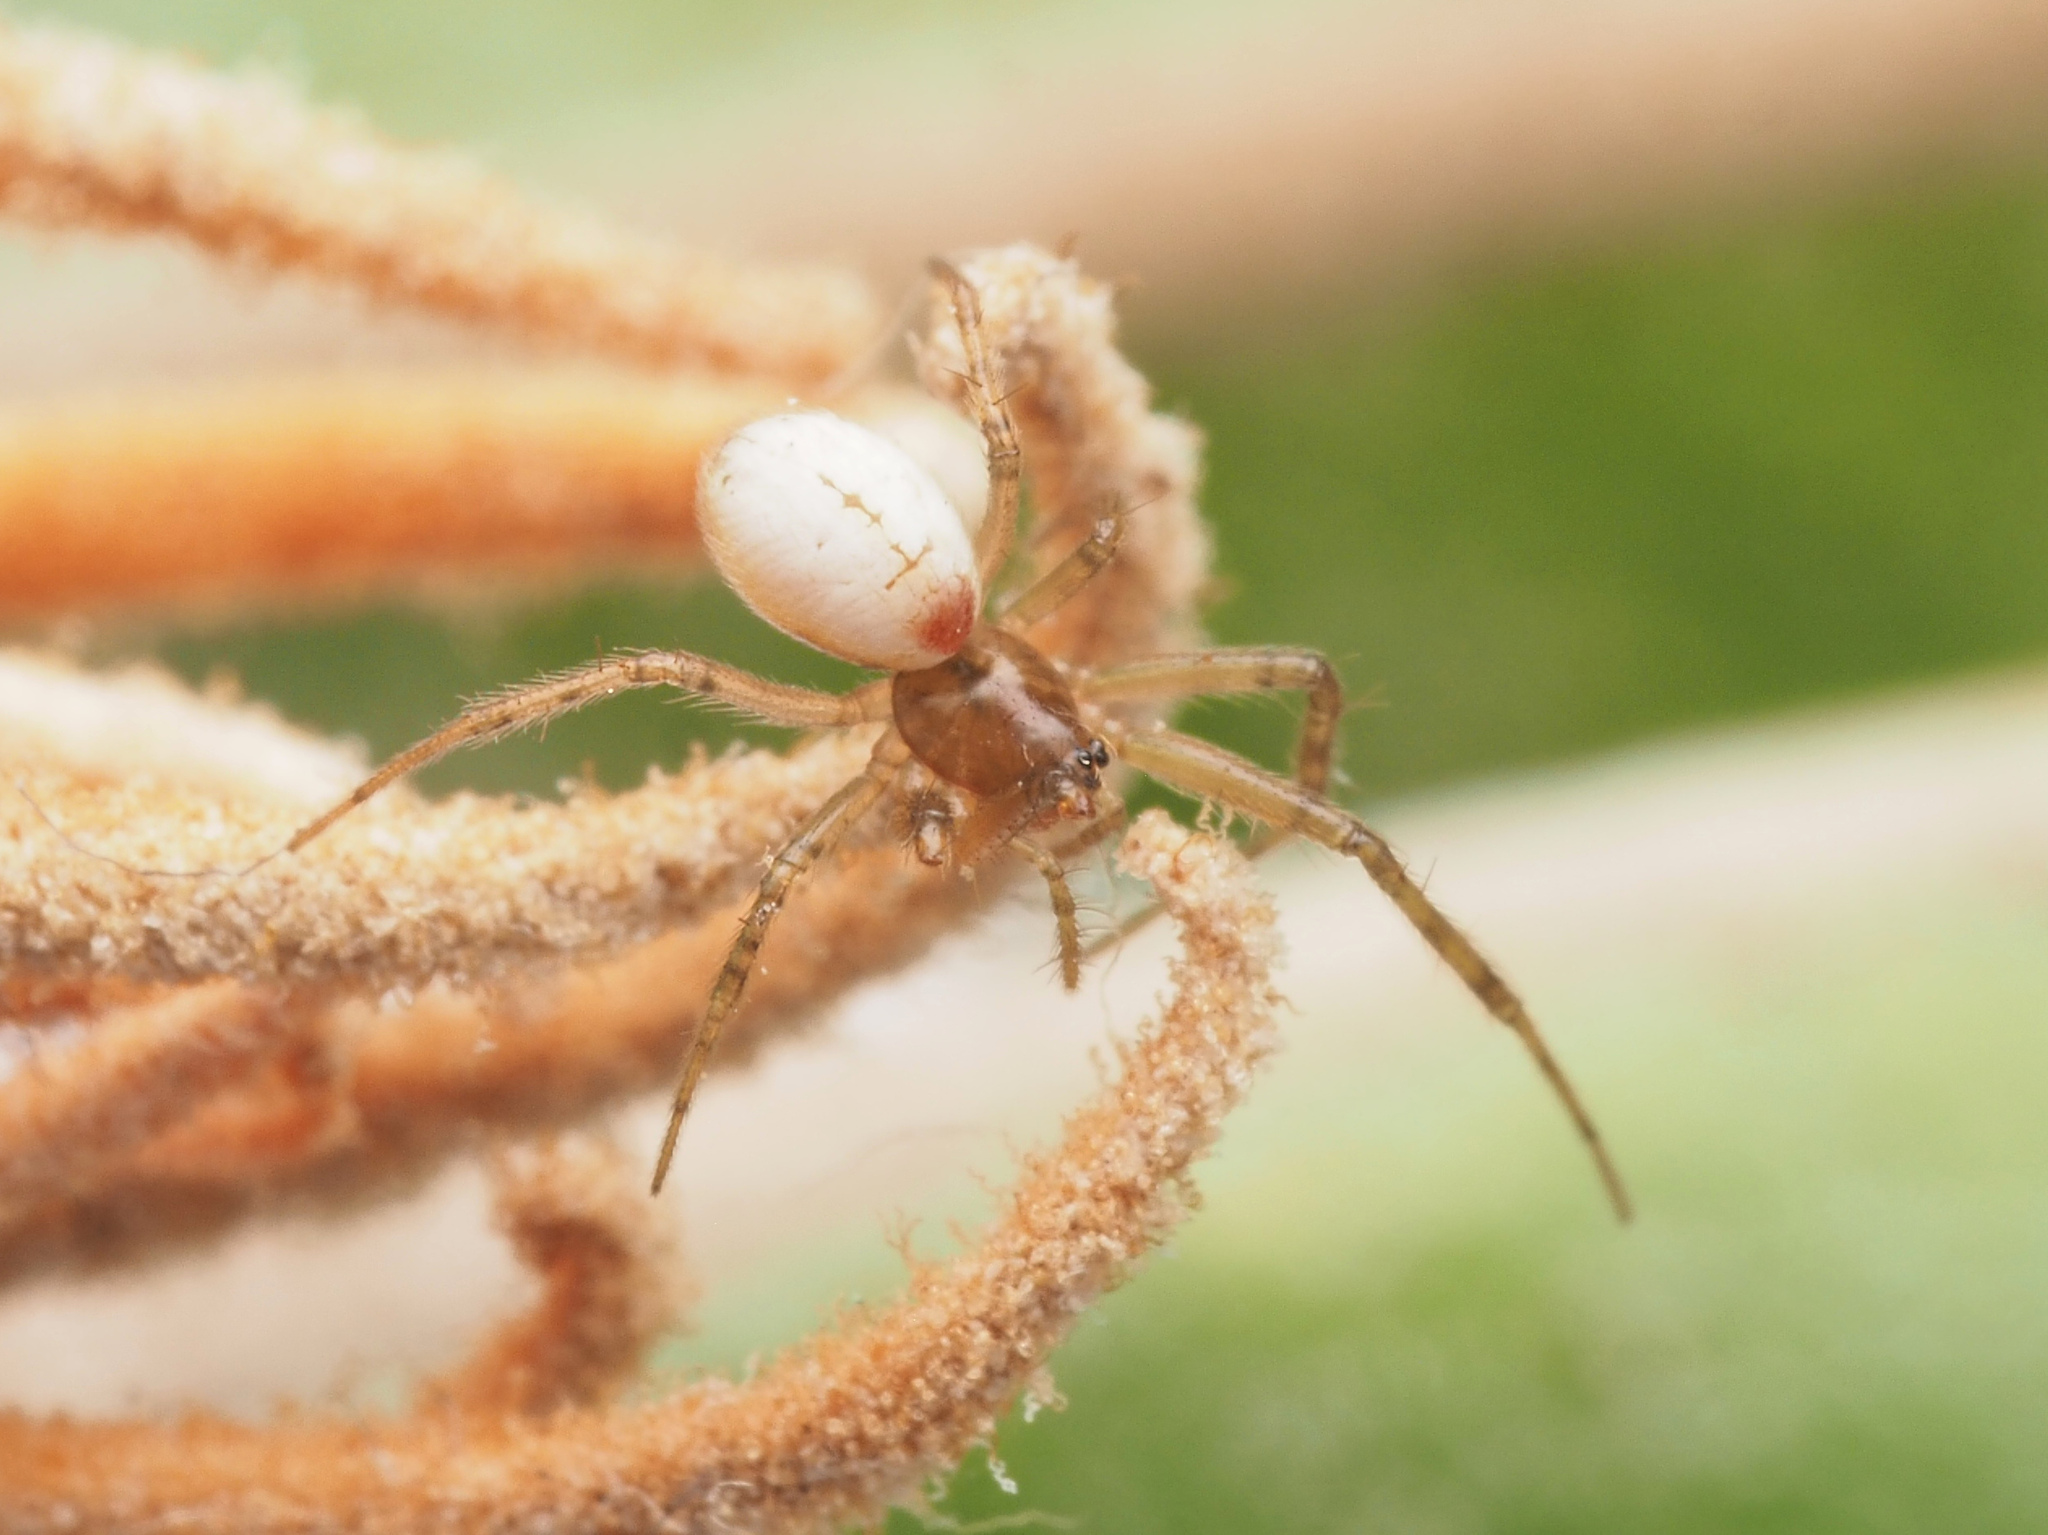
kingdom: Animalia
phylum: Arthropoda
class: Arachnida
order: Araneae
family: Linyphiidae
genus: Laperousea
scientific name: Laperousea
